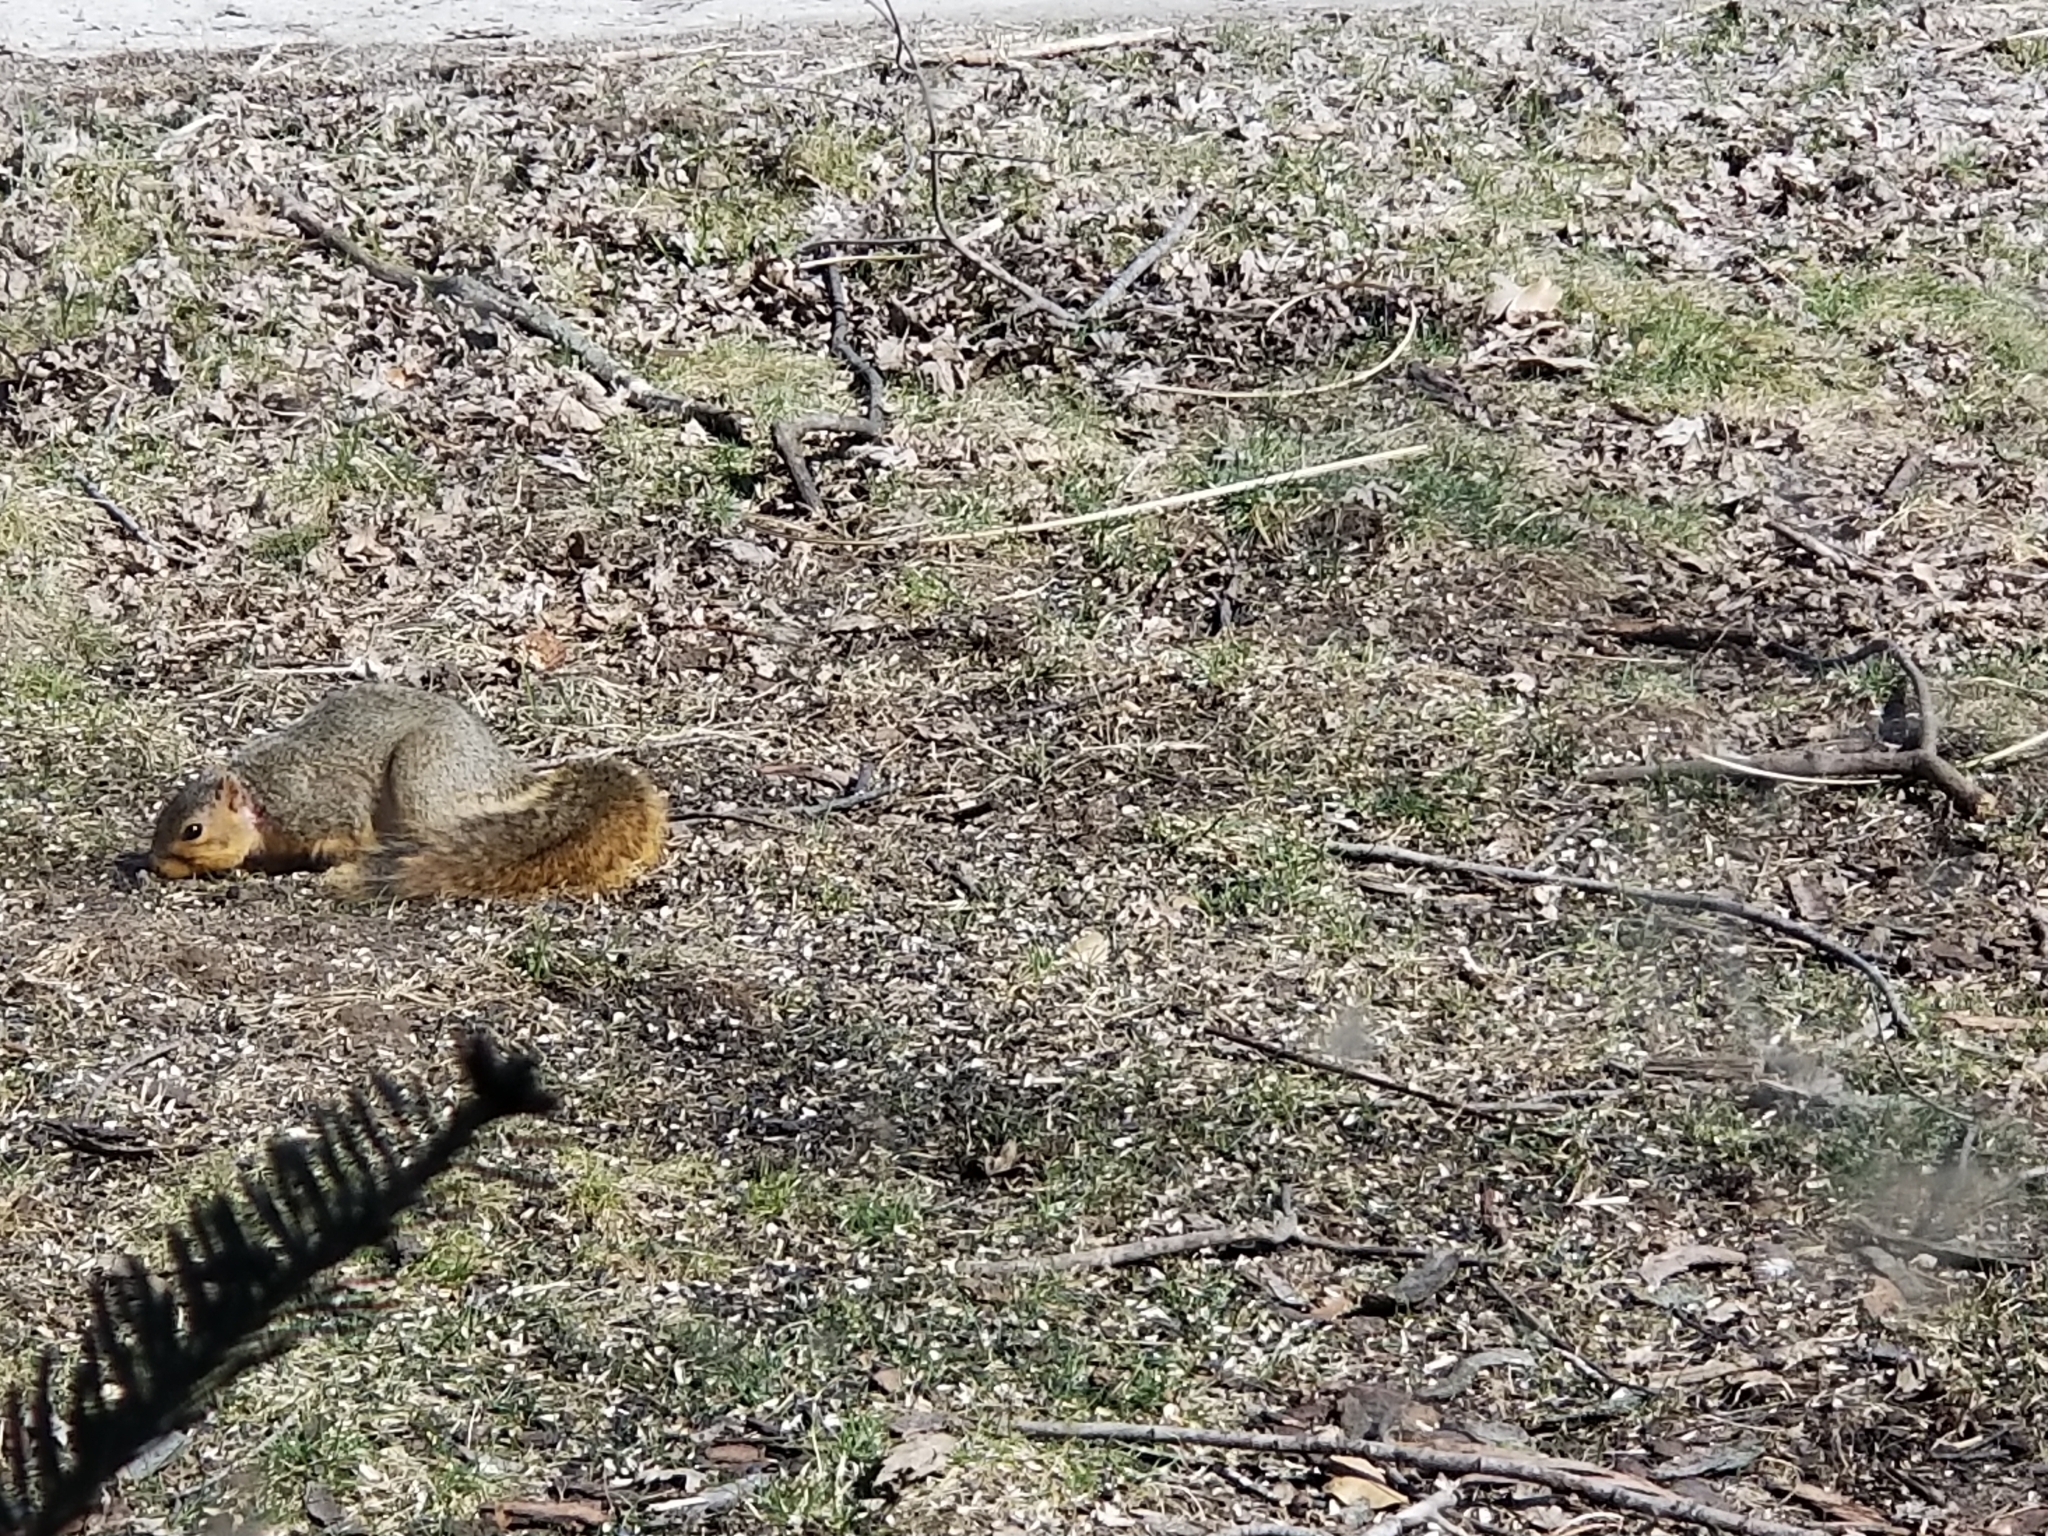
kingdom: Animalia
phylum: Chordata
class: Mammalia
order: Rodentia
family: Sciuridae
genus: Sciurus
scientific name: Sciurus niger
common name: Fox squirrel
